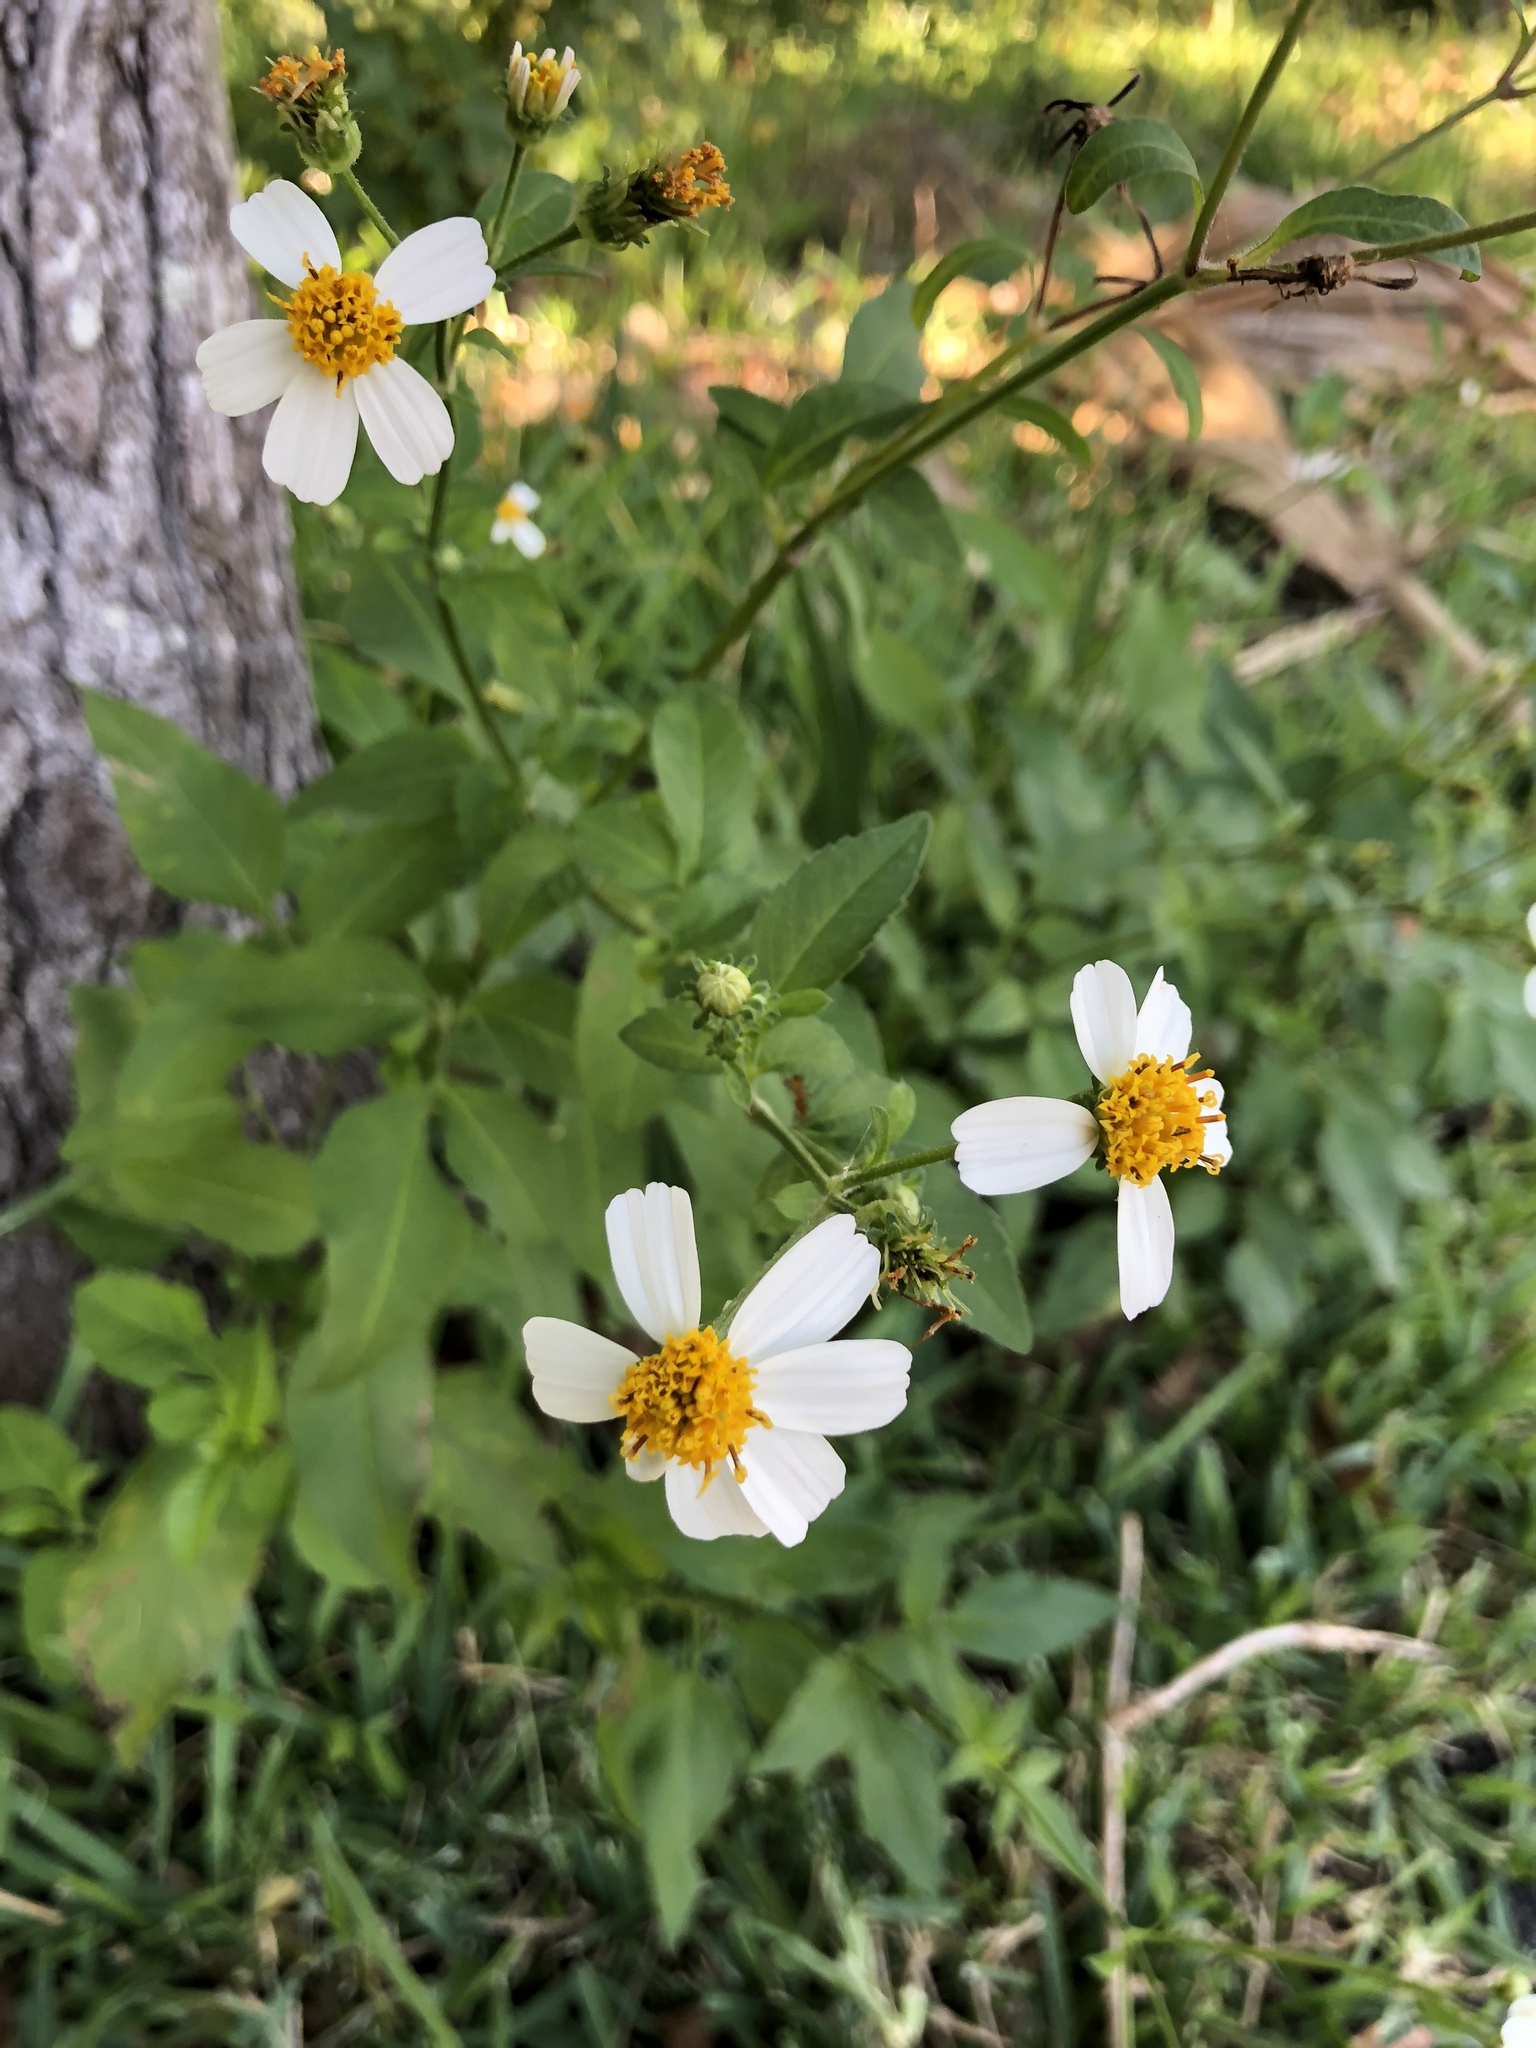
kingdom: Plantae
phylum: Tracheophyta
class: Magnoliopsida
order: Asterales
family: Asteraceae
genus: Bidens
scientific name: Bidens alba
